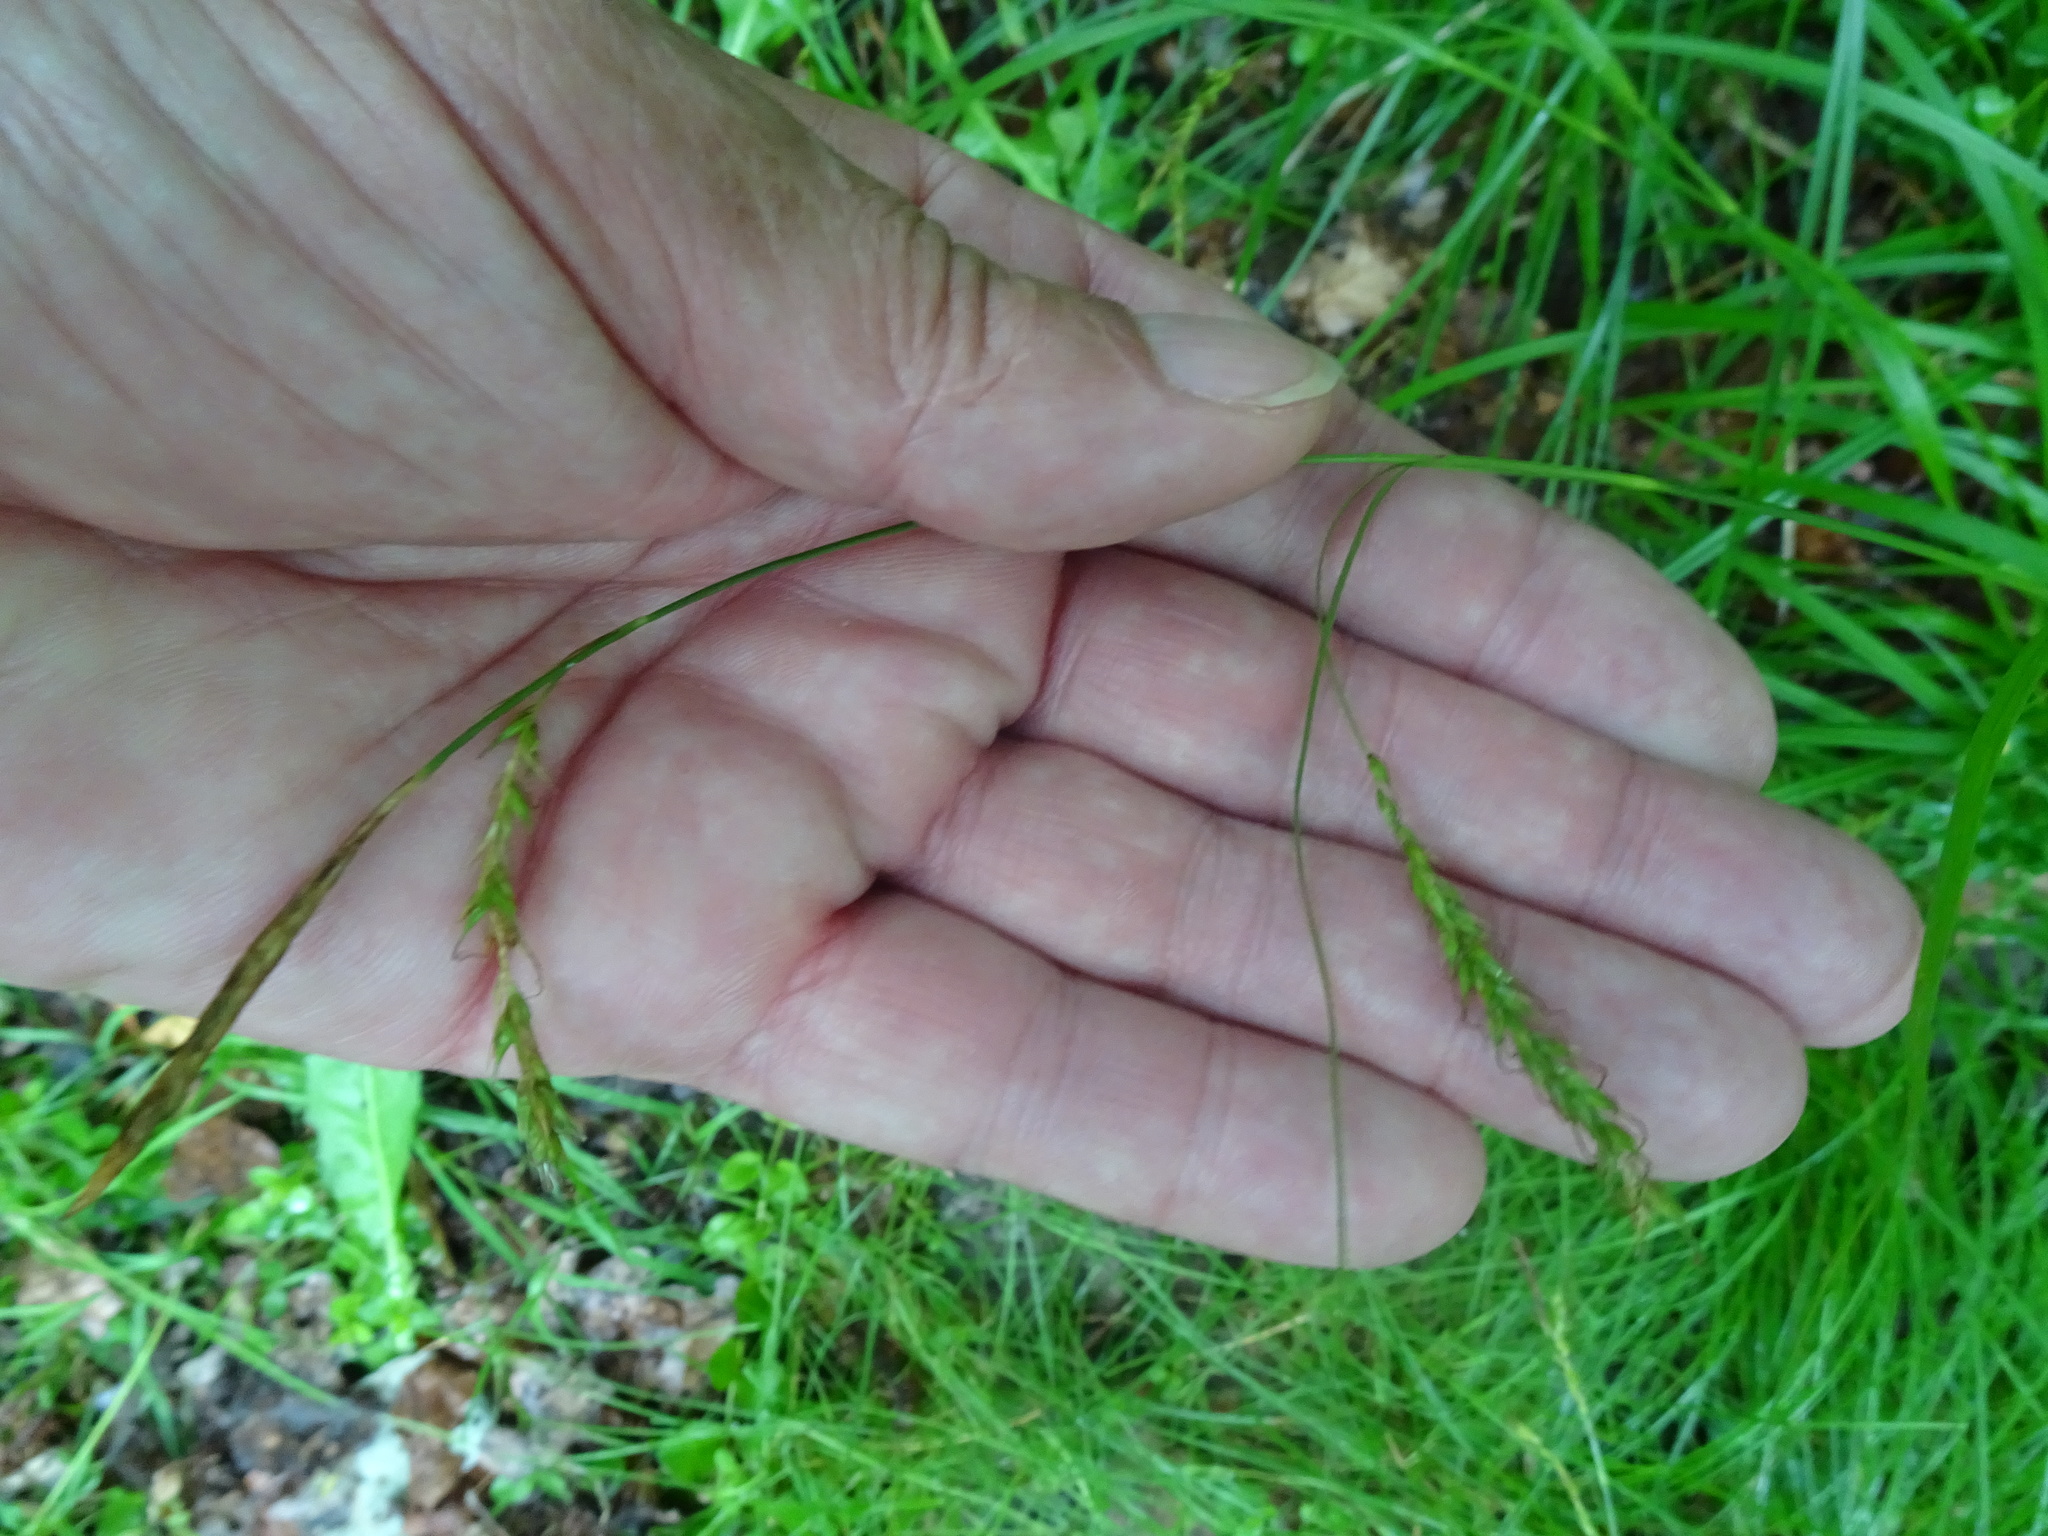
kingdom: Plantae
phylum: Tracheophyta
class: Liliopsida
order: Poales
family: Cyperaceae
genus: Carex
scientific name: Carex sylvatica
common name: Wood-sedge
